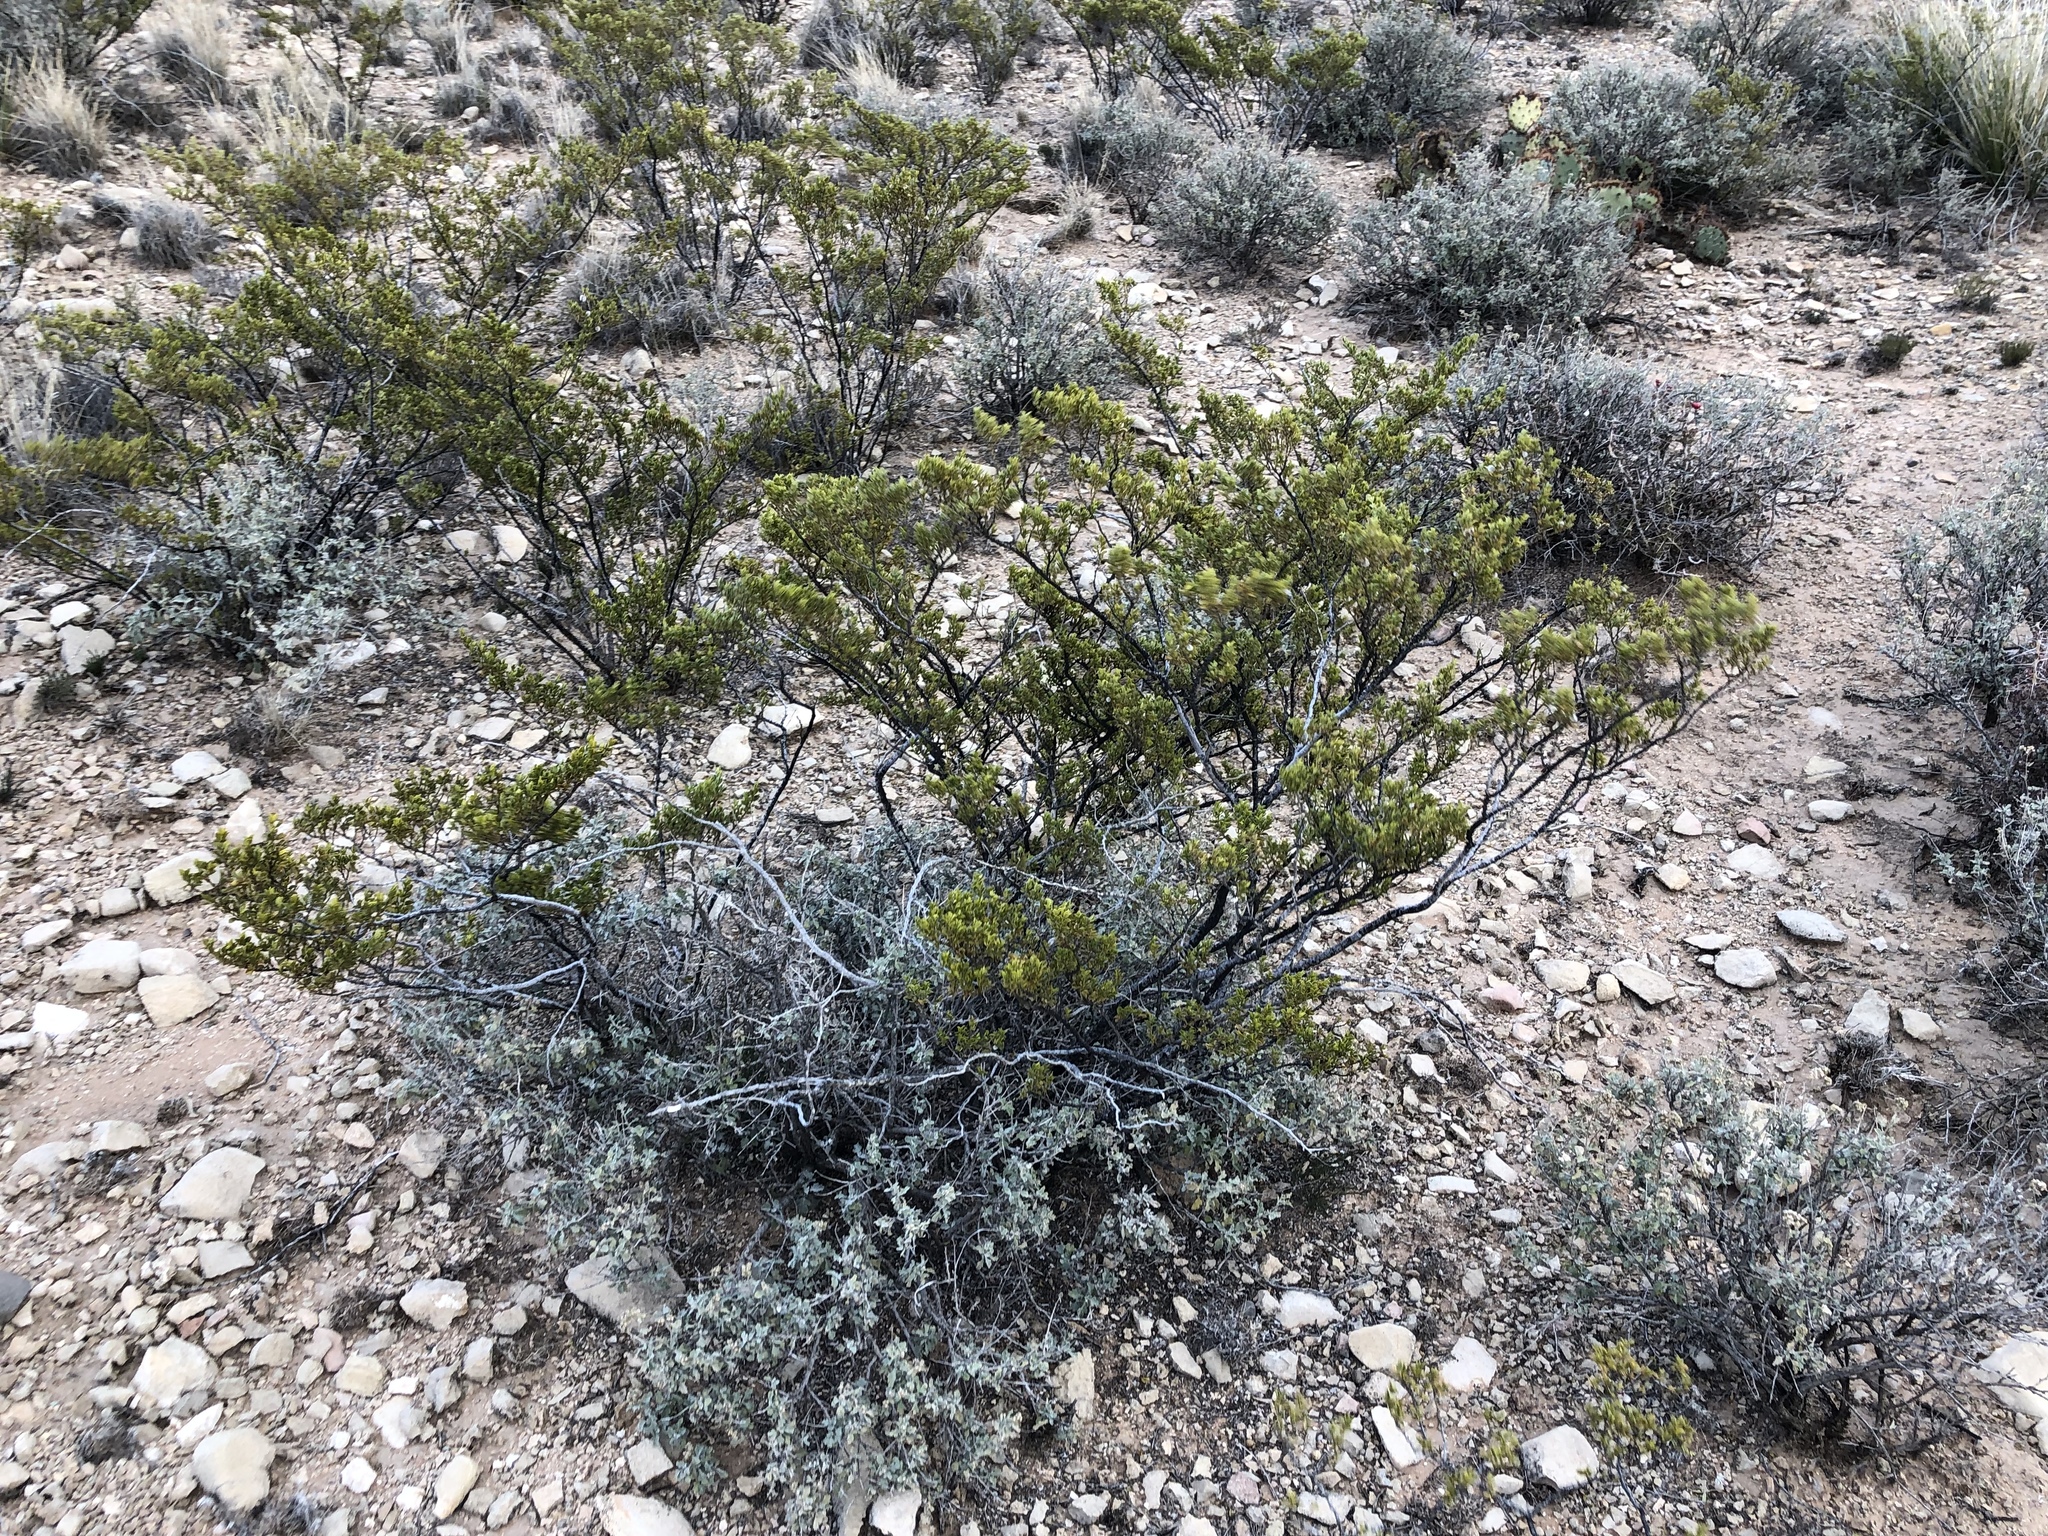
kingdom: Plantae
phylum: Tracheophyta
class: Magnoliopsida
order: Zygophyllales
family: Zygophyllaceae
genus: Larrea
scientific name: Larrea tridentata
